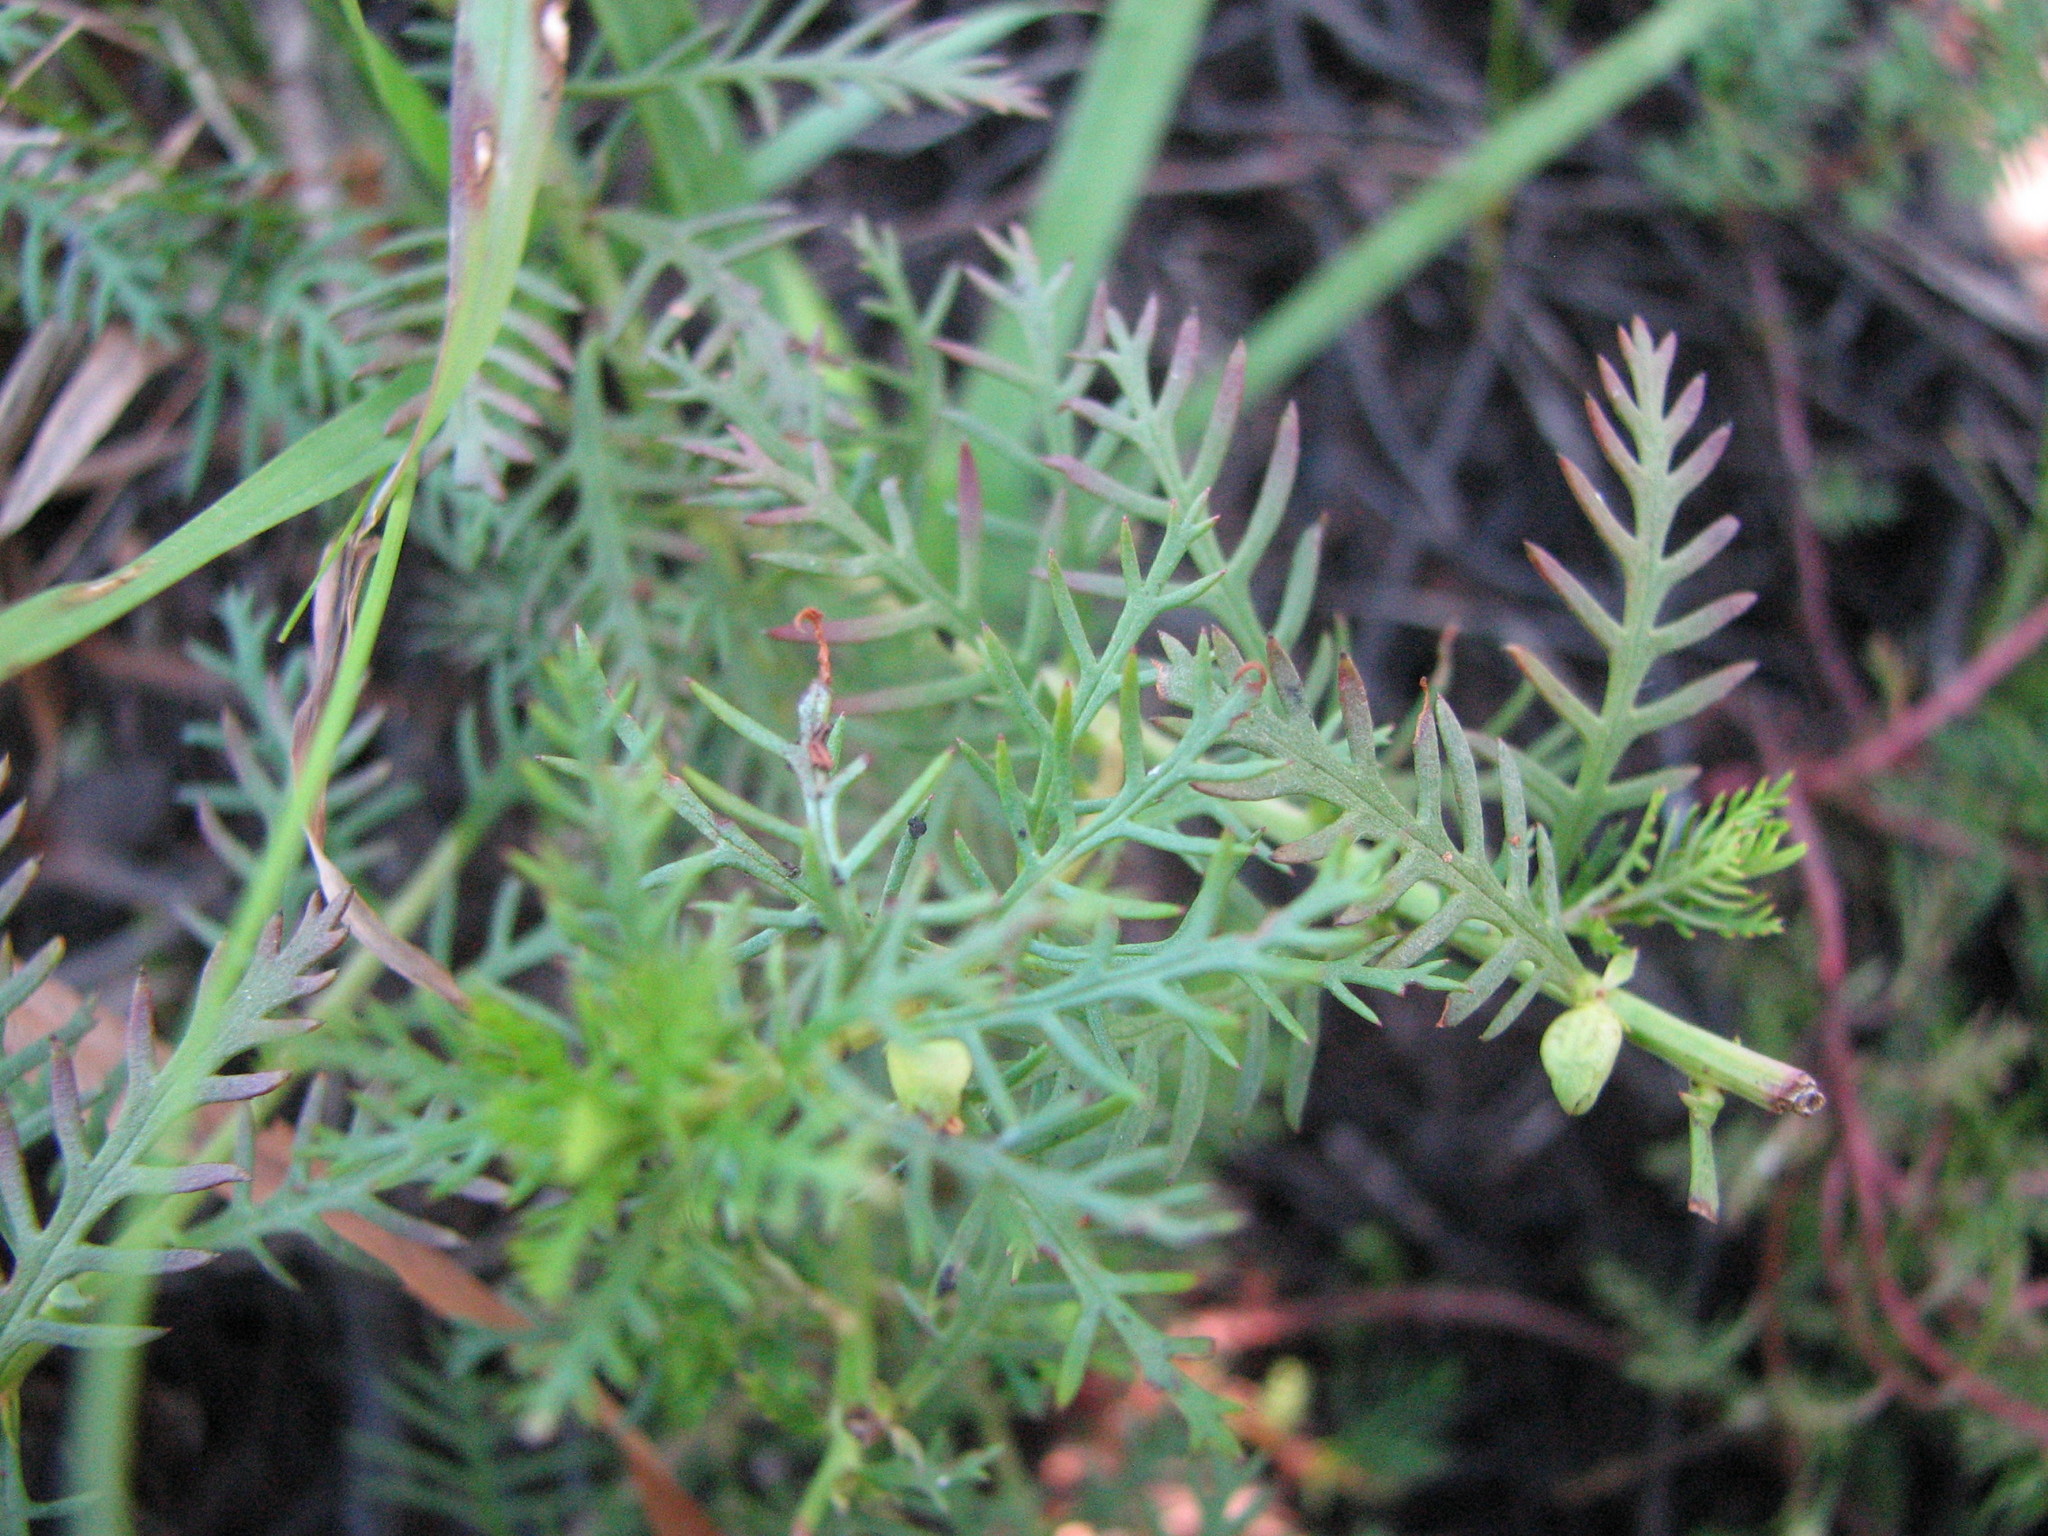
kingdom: Plantae
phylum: Tracheophyta
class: Magnoliopsida
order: Saxifragales
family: Haloragaceae
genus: Proserpinaca
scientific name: Proserpinaca pectinata
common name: Comb-leaved mermaidweed
